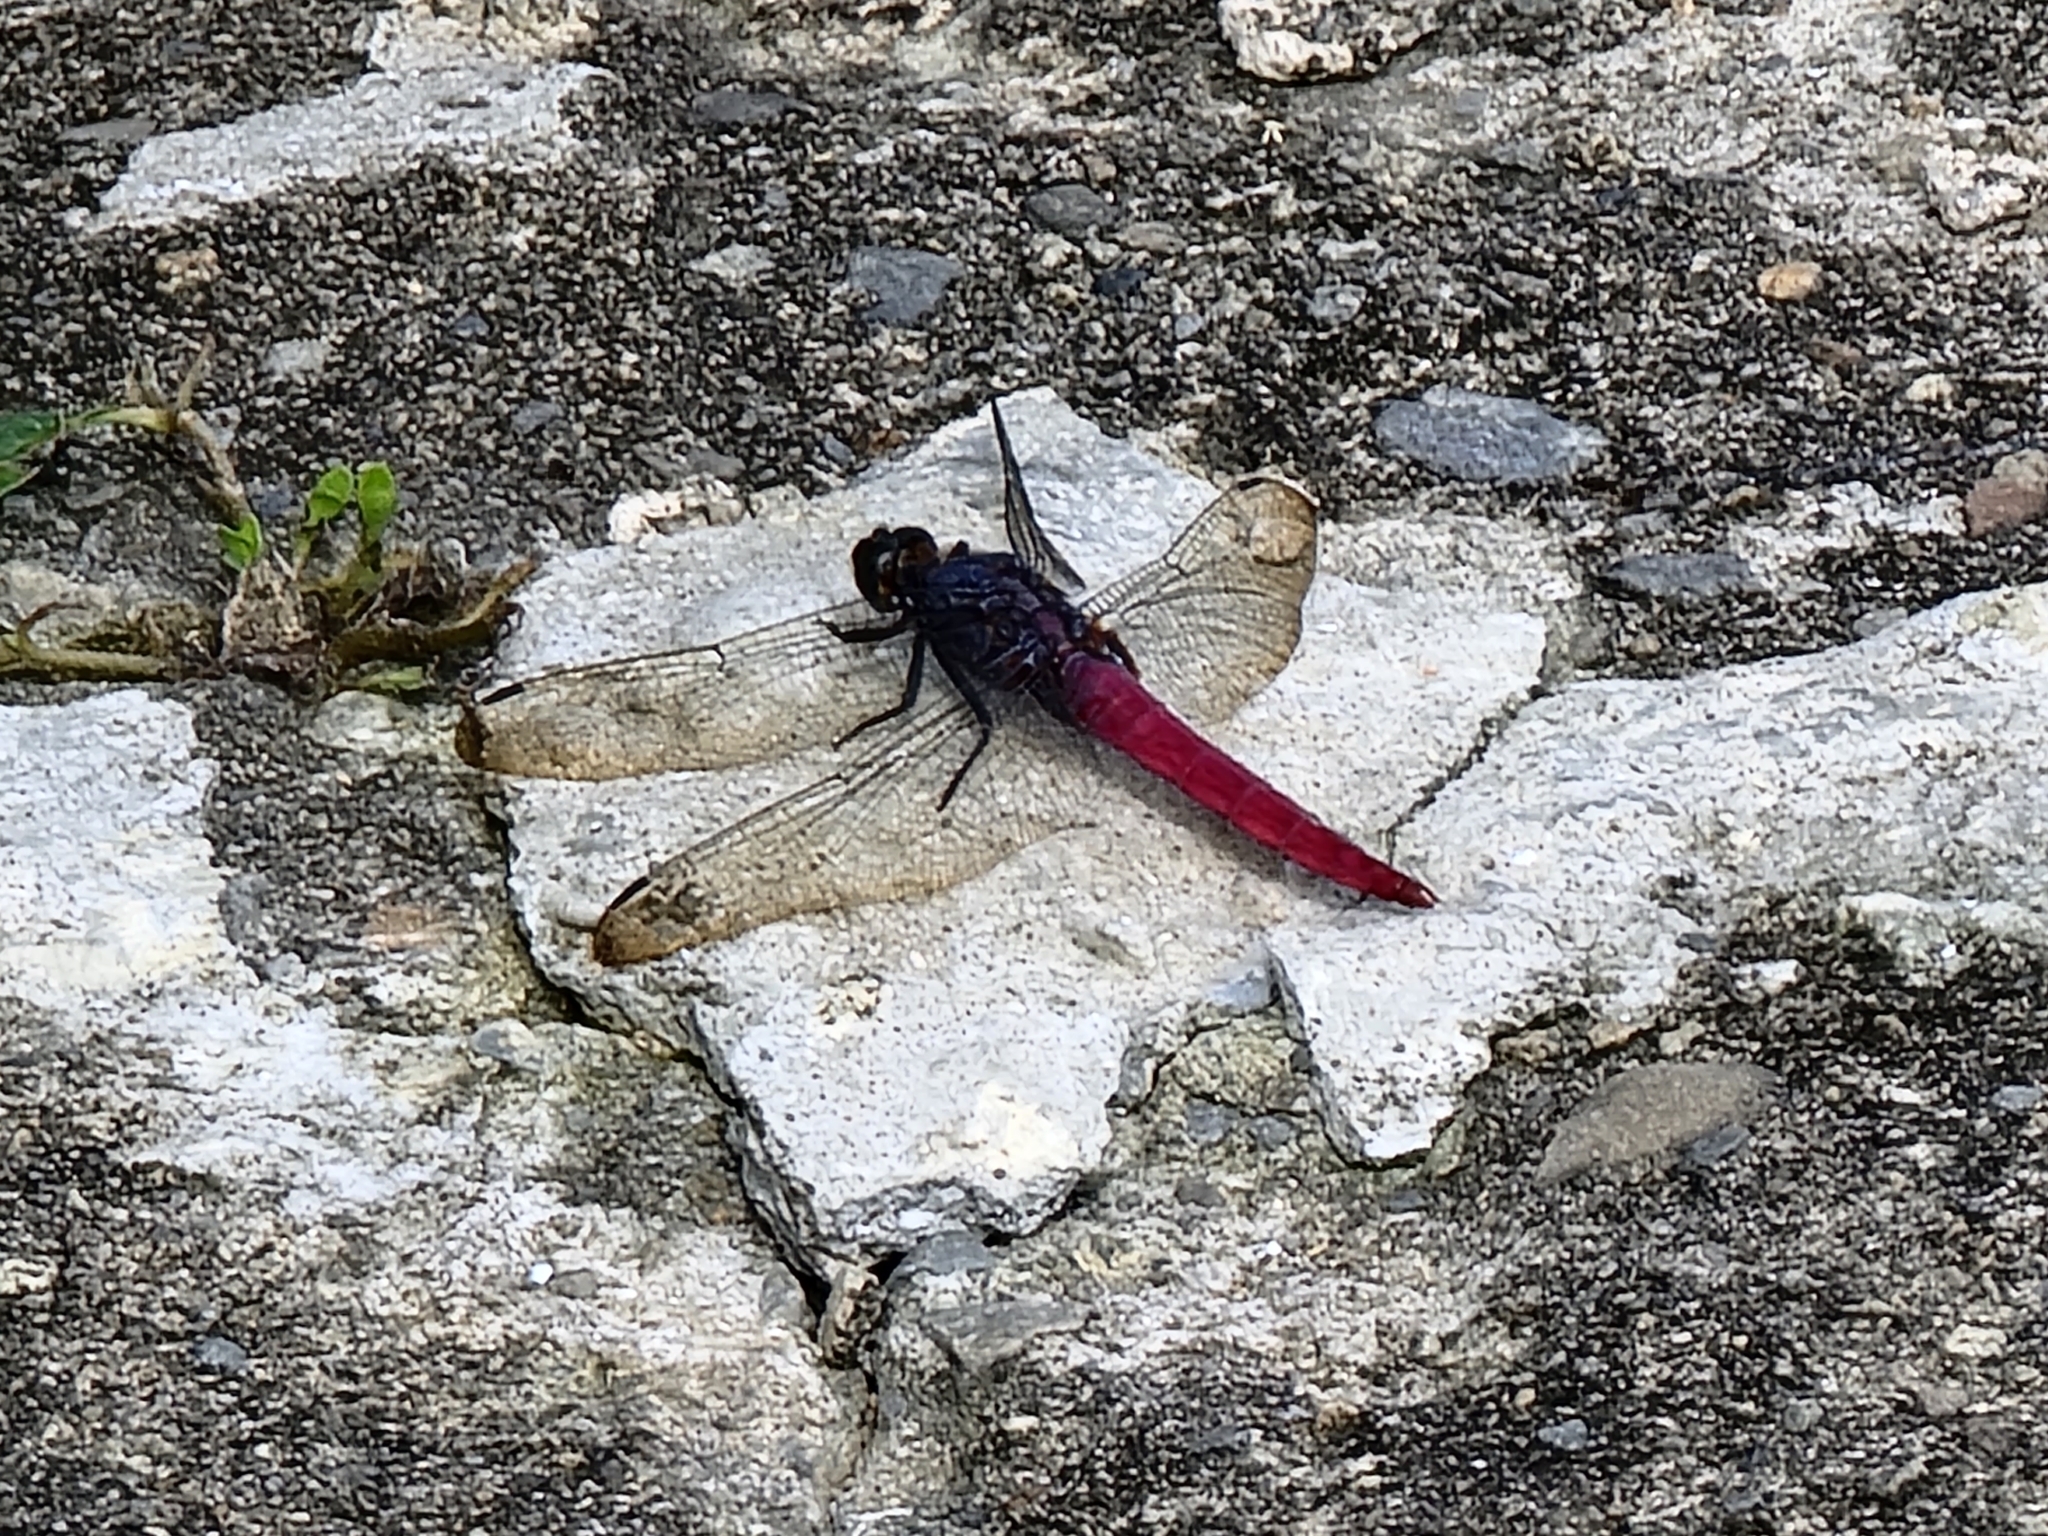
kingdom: Animalia
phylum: Arthropoda
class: Insecta
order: Odonata
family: Libellulidae
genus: Orthetrum
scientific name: Orthetrum pruinosum
